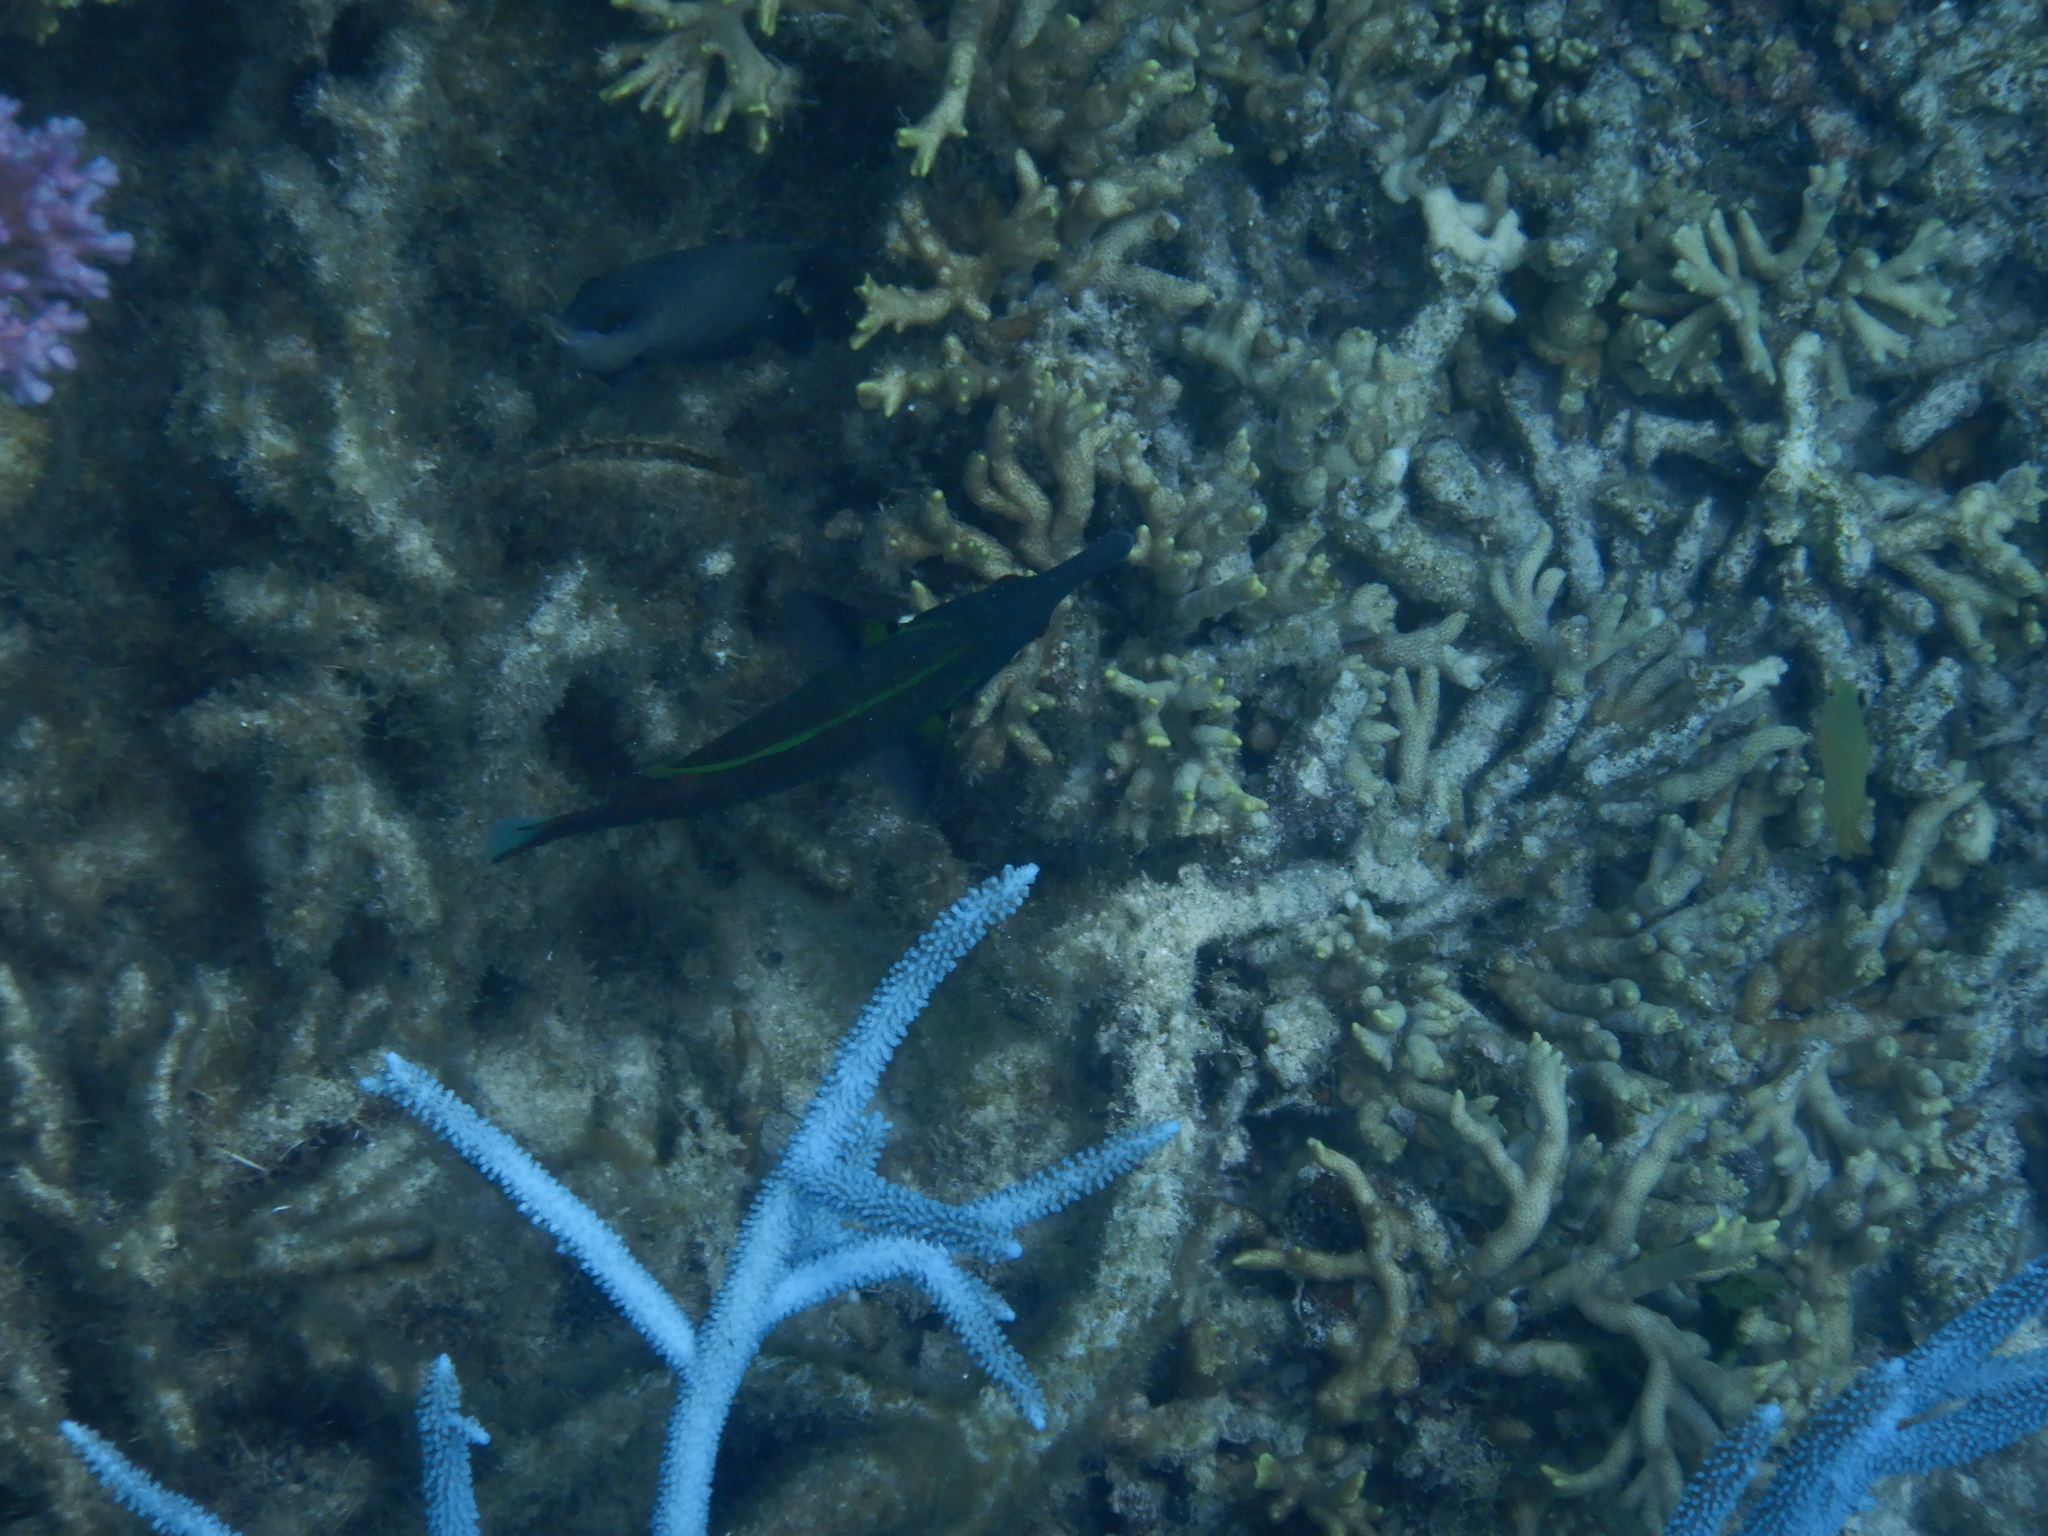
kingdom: Animalia
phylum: Chordata
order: Perciformes
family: Labridae
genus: Gomphosus
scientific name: Gomphosus varius
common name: Bird wrasse
